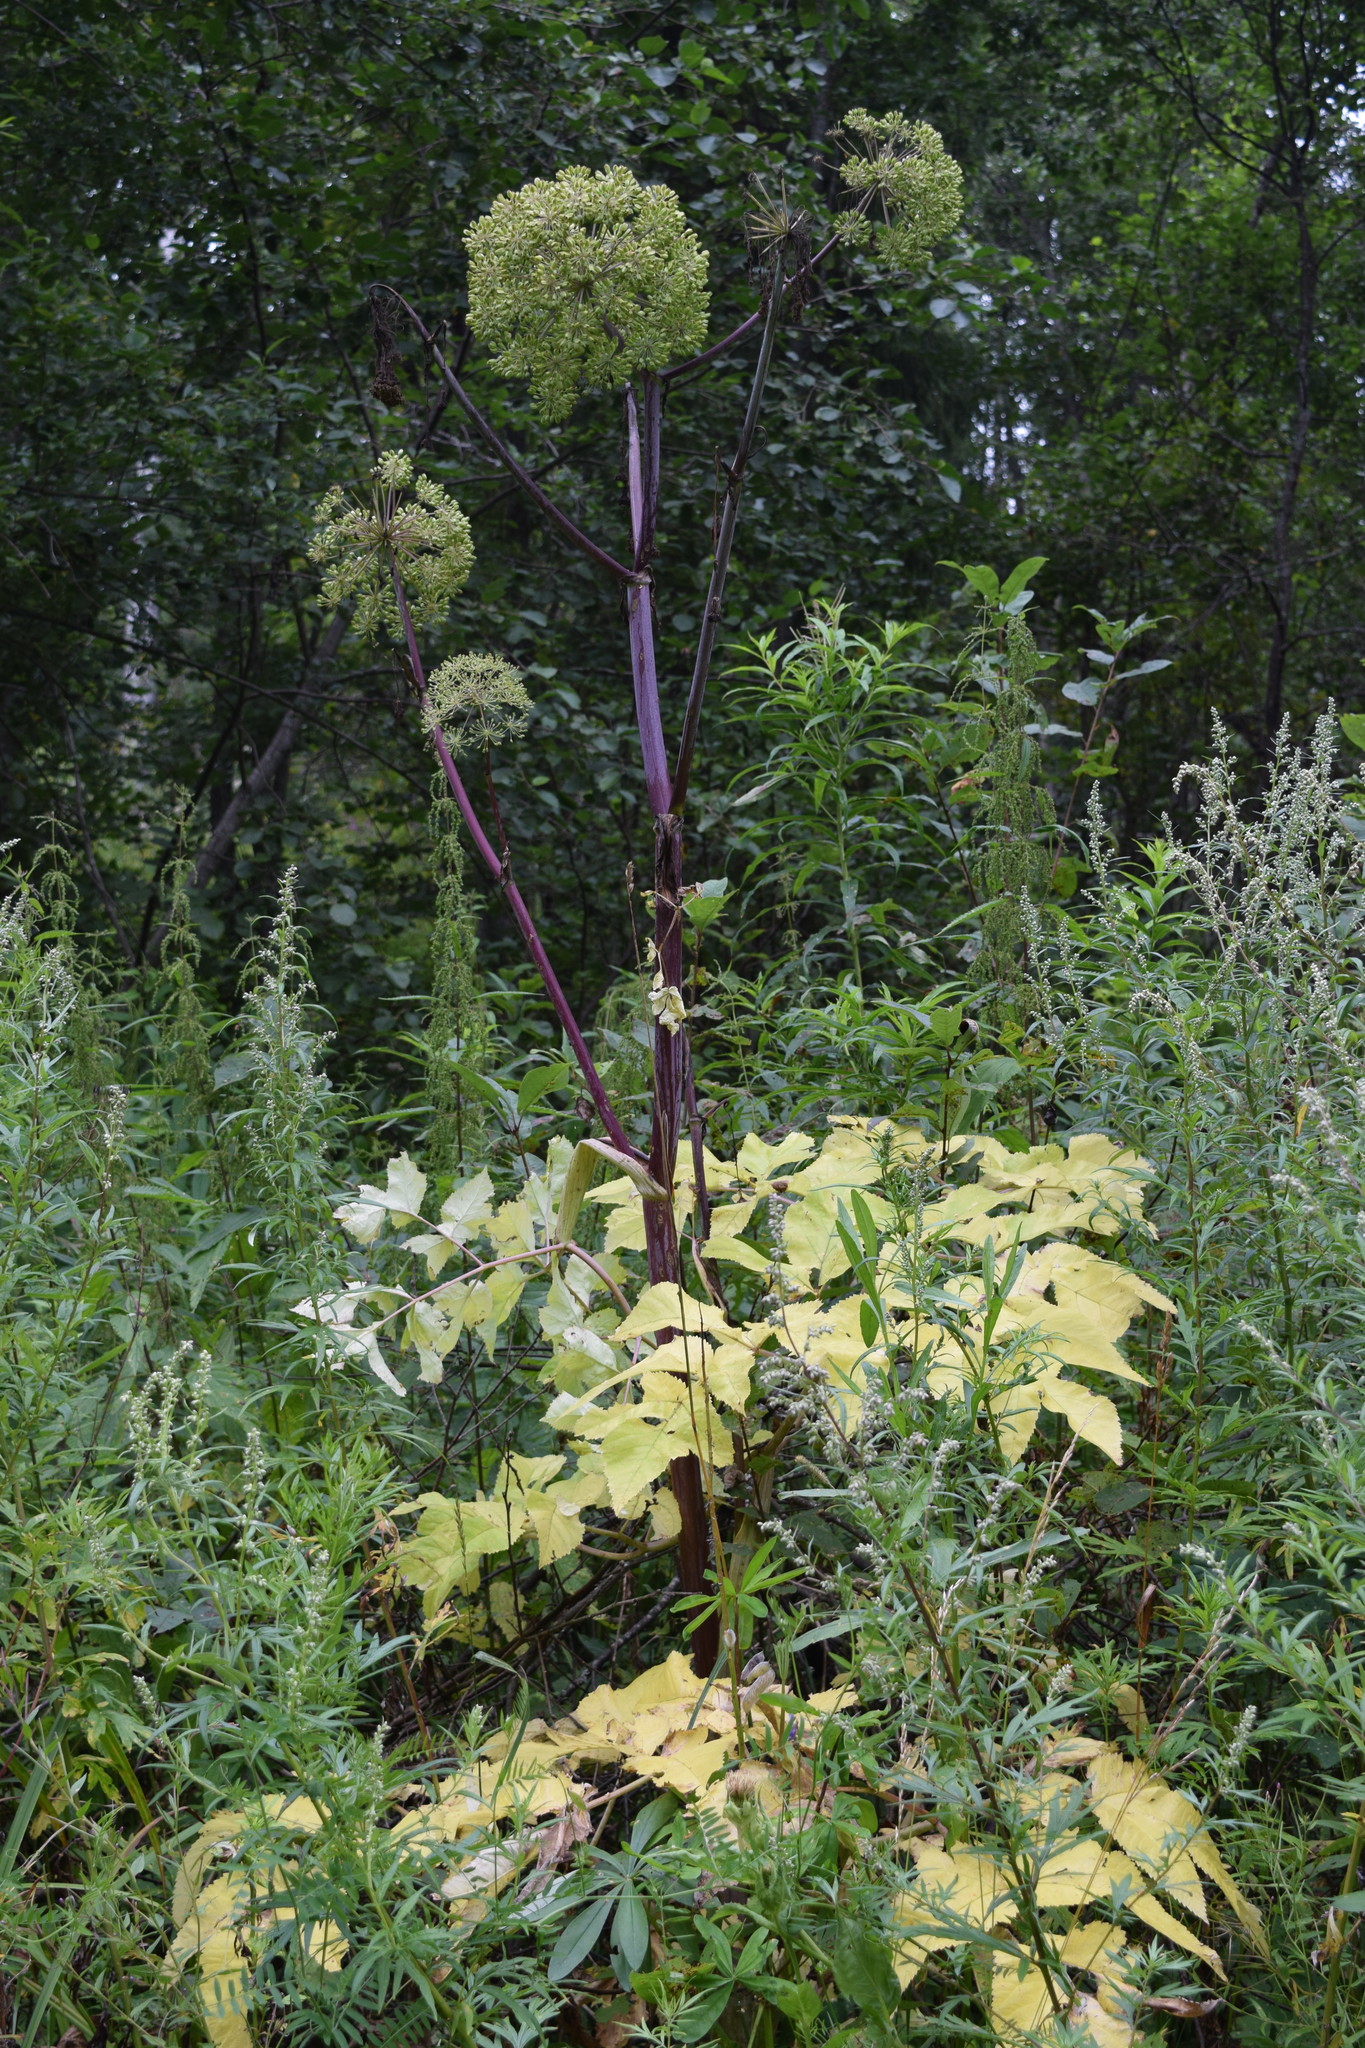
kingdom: Plantae
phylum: Tracheophyta
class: Magnoliopsida
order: Apiales
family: Apiaceae
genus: Angelica
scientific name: Angelica archangelica
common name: Garden angelica
